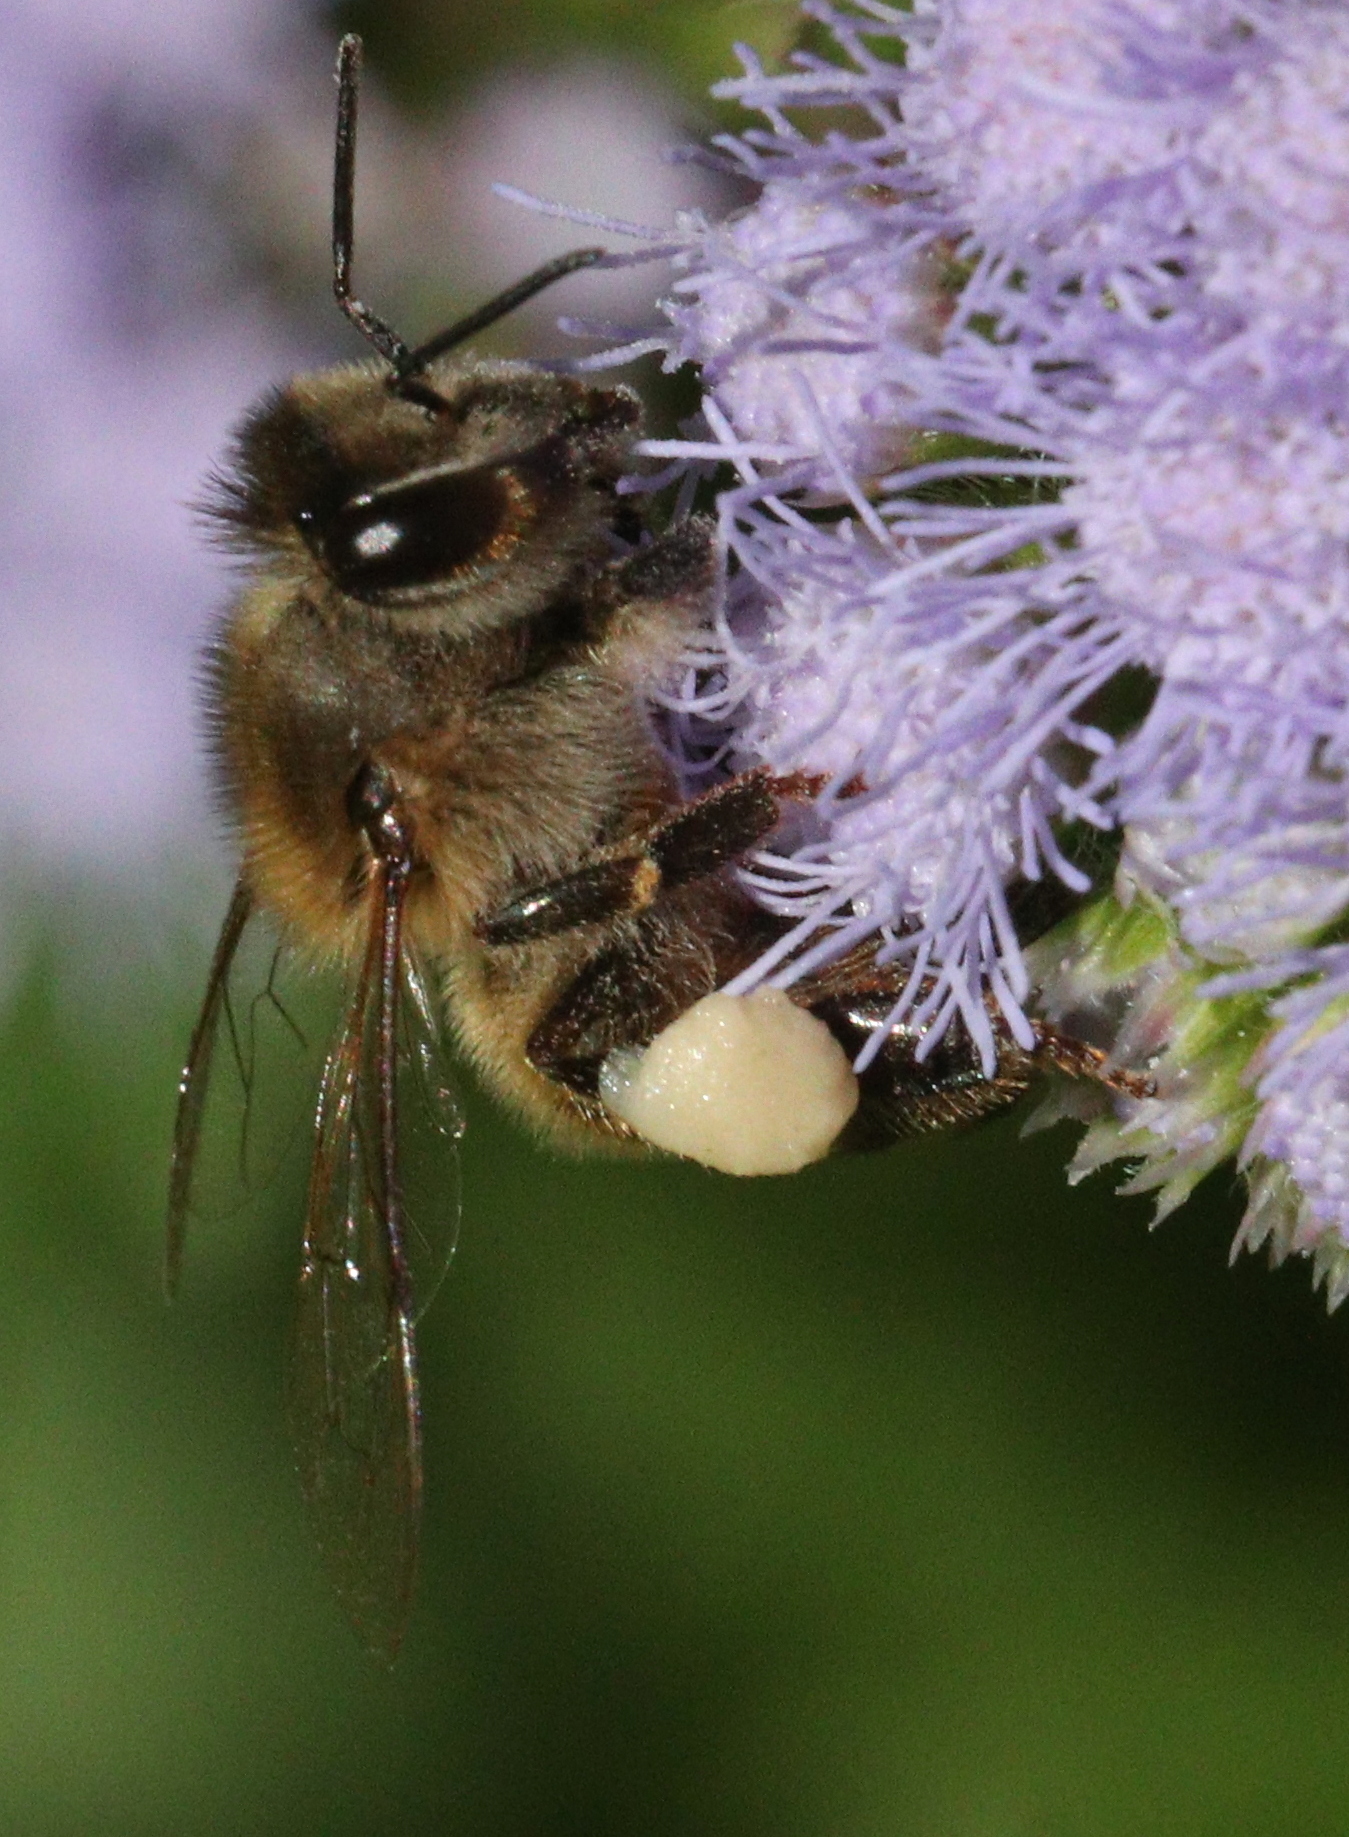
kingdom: Animalia
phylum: Arthropoda
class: Insecta
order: Hymenoptera
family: Apidae
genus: Apis
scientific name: Apis mellifera
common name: Honey bee
